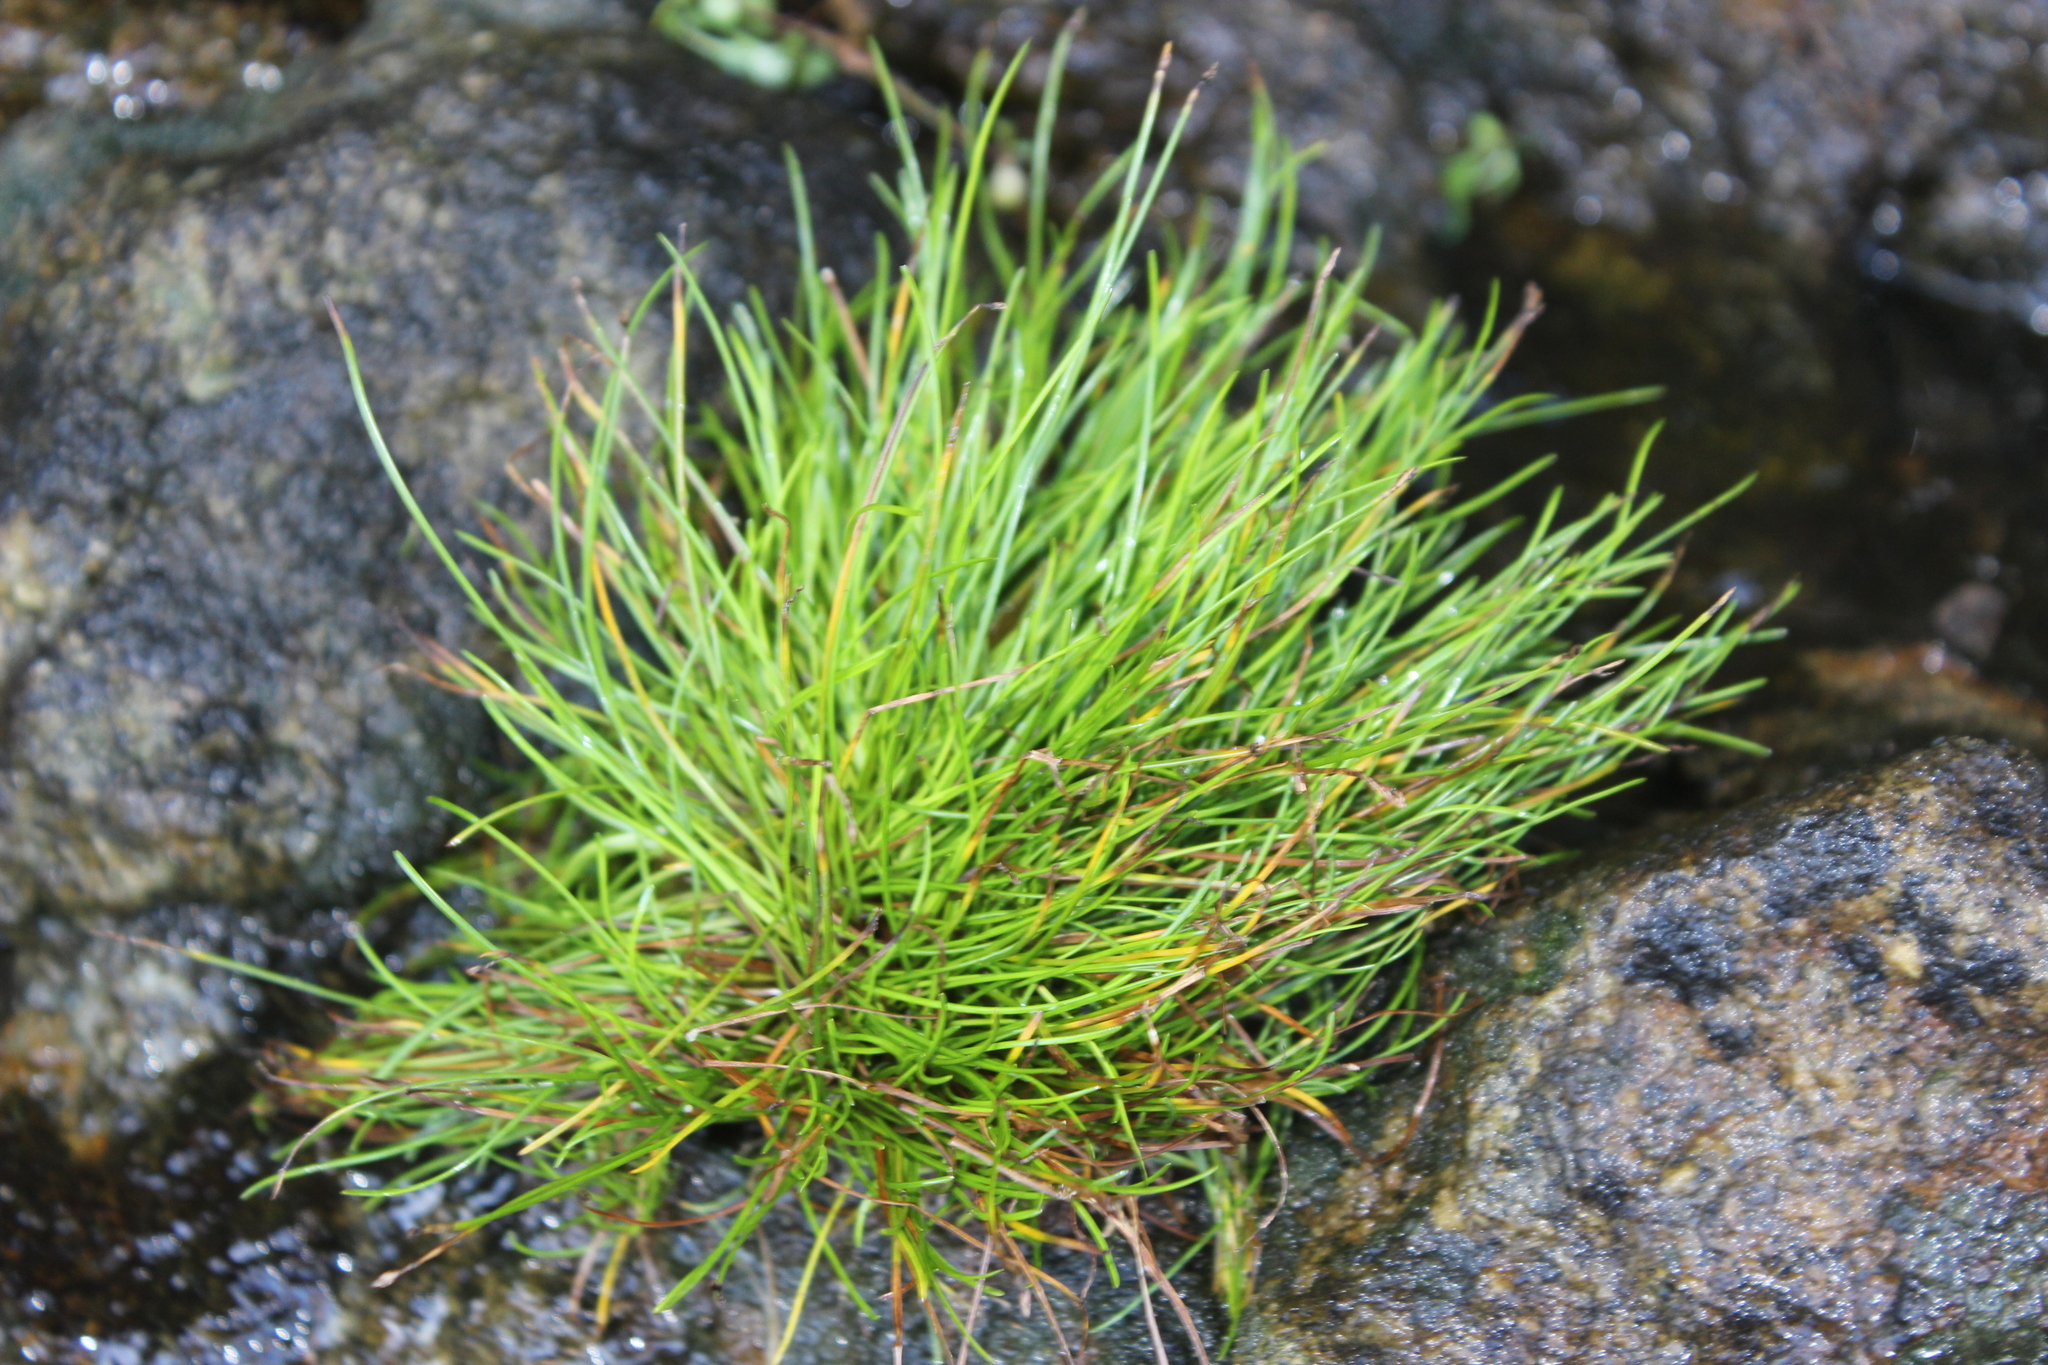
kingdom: Plantae
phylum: Tracheophyta
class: Liliopsida
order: Poales
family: Cyperaceae
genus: Isolepis
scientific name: Isolepis cernua
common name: Slender club-rush
